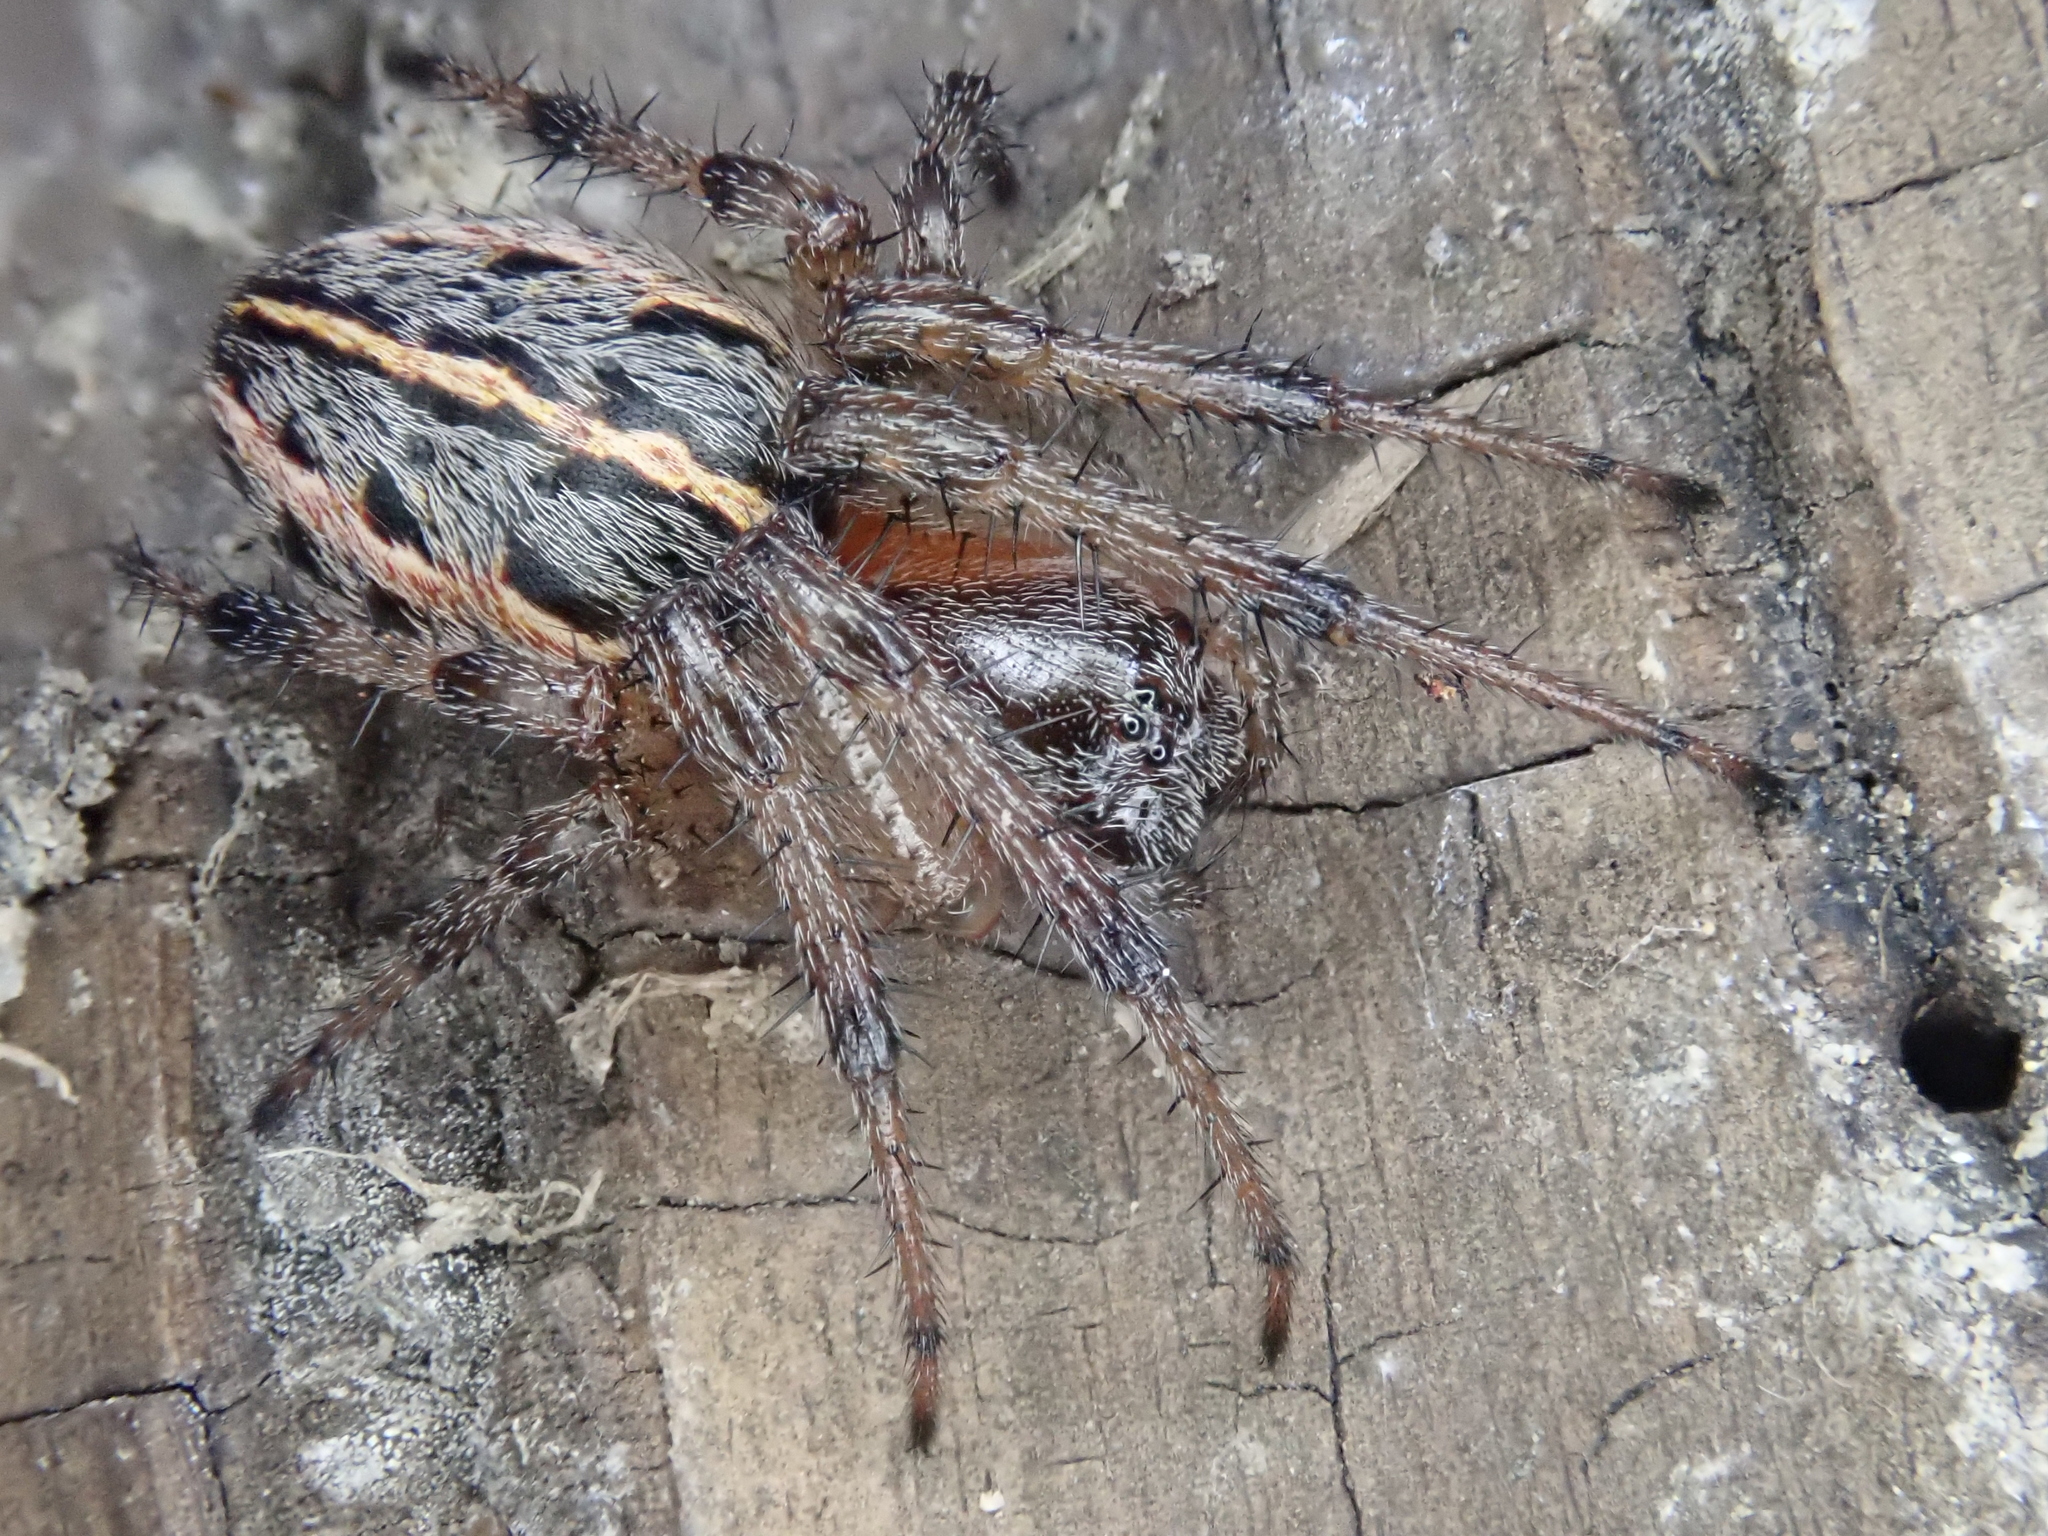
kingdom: Animalia
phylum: Arthropoda
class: Arachnida
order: Araneae
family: Araneidae
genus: Alpaida
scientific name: Alpaida veniliae
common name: Orb weavers
